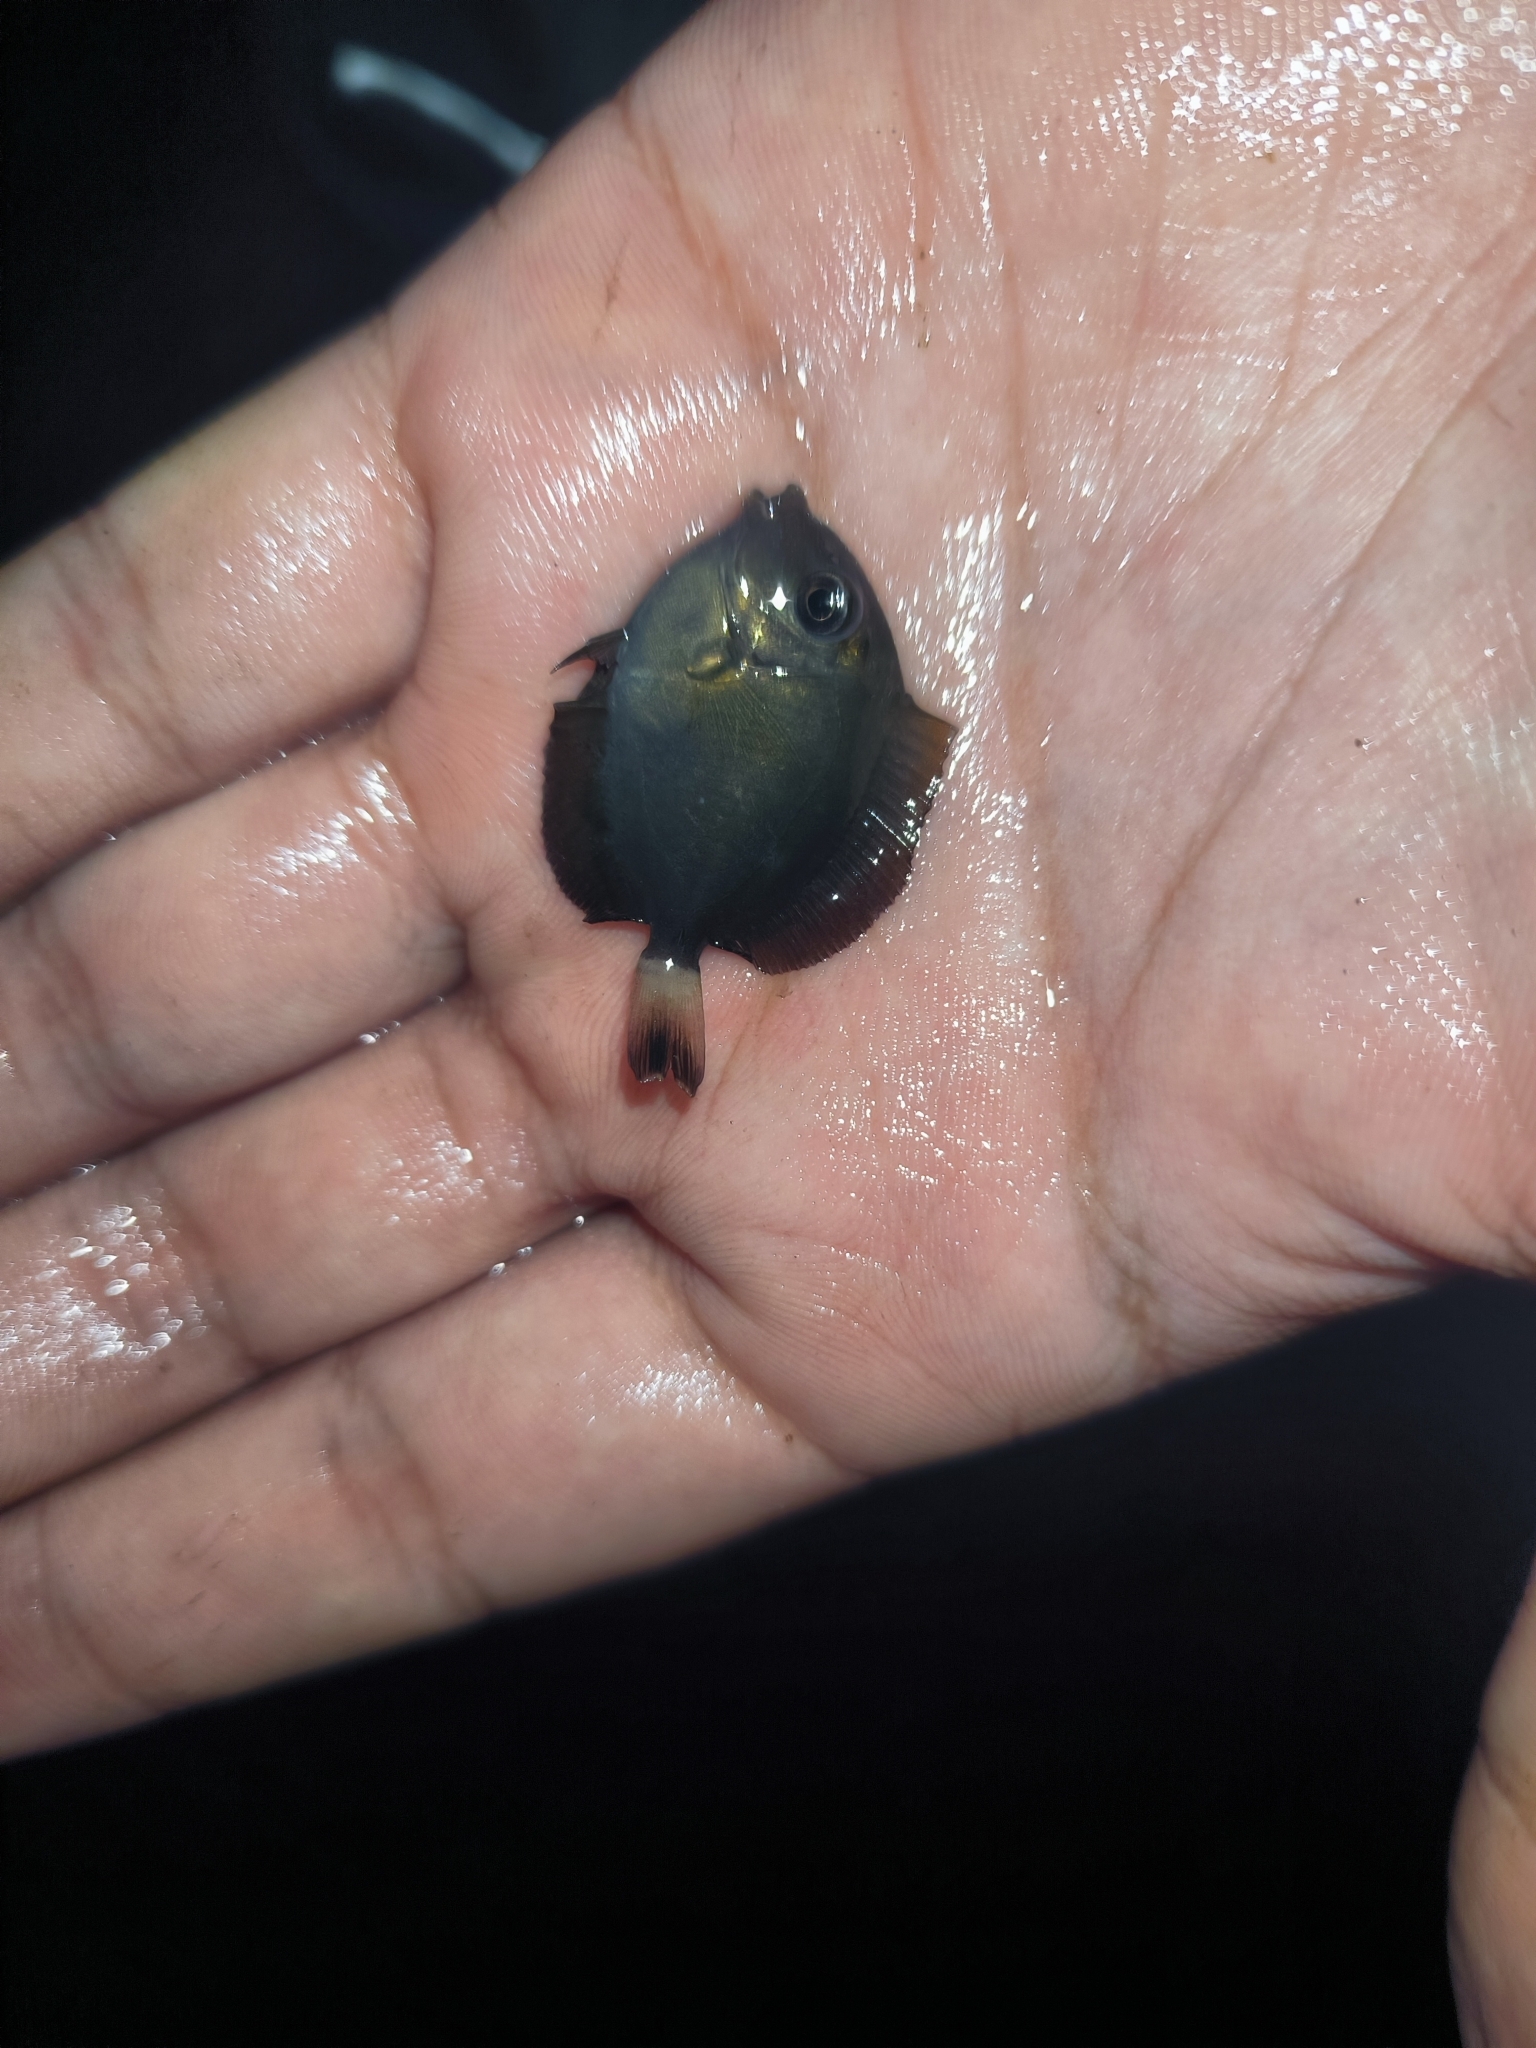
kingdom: Animalia
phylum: Chordata
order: Perciformes
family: Acanthuridae
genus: Acanthurus
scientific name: Acanthurus xanthopterus
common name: Cuvier's surgeonfish
